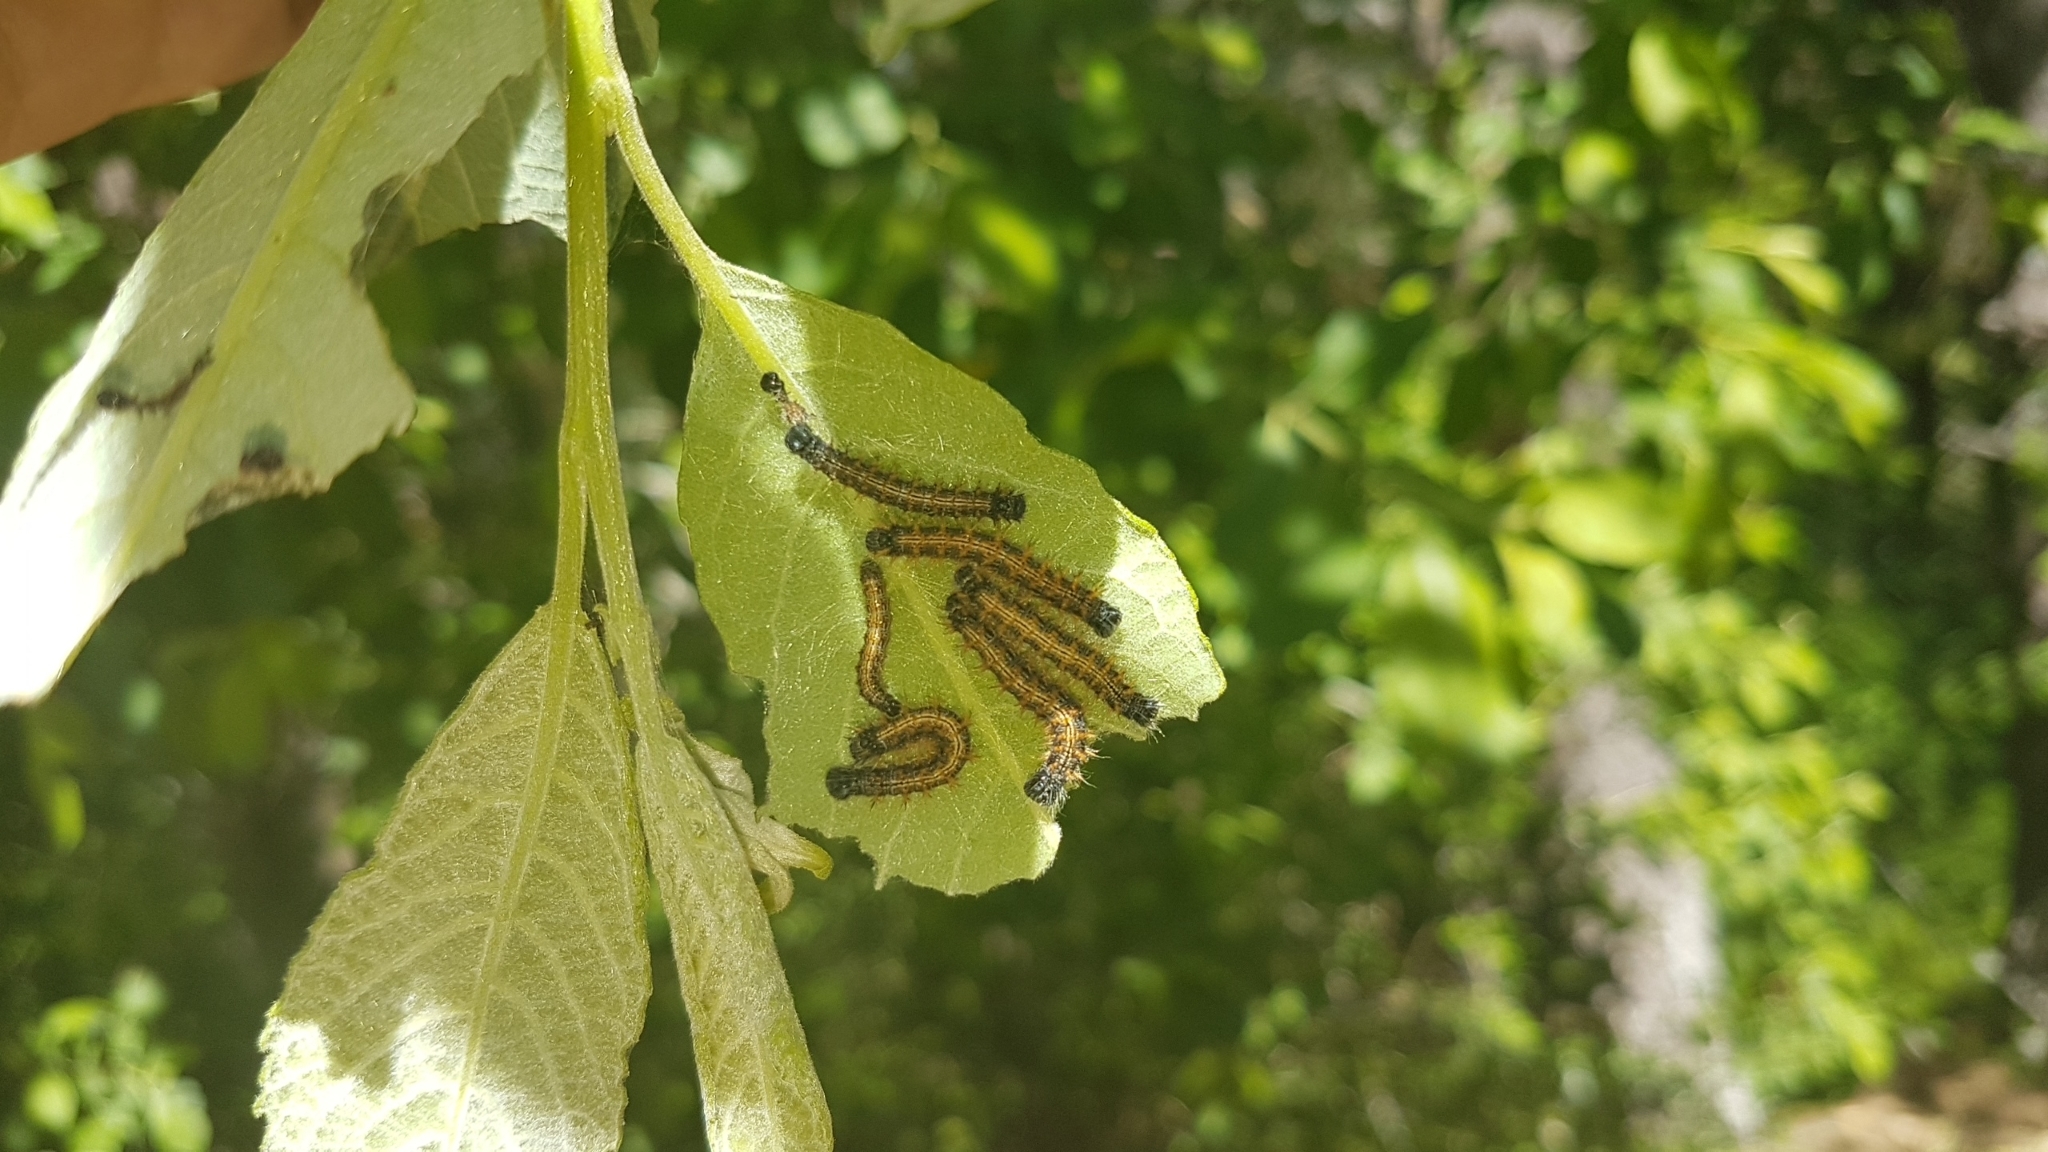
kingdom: Animalia
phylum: Arthropoda
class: Insecta
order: Lepidoptera
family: Nymphalidae
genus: Nymphalis
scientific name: Nymphalis polychloros
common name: Large tortoiseshell
